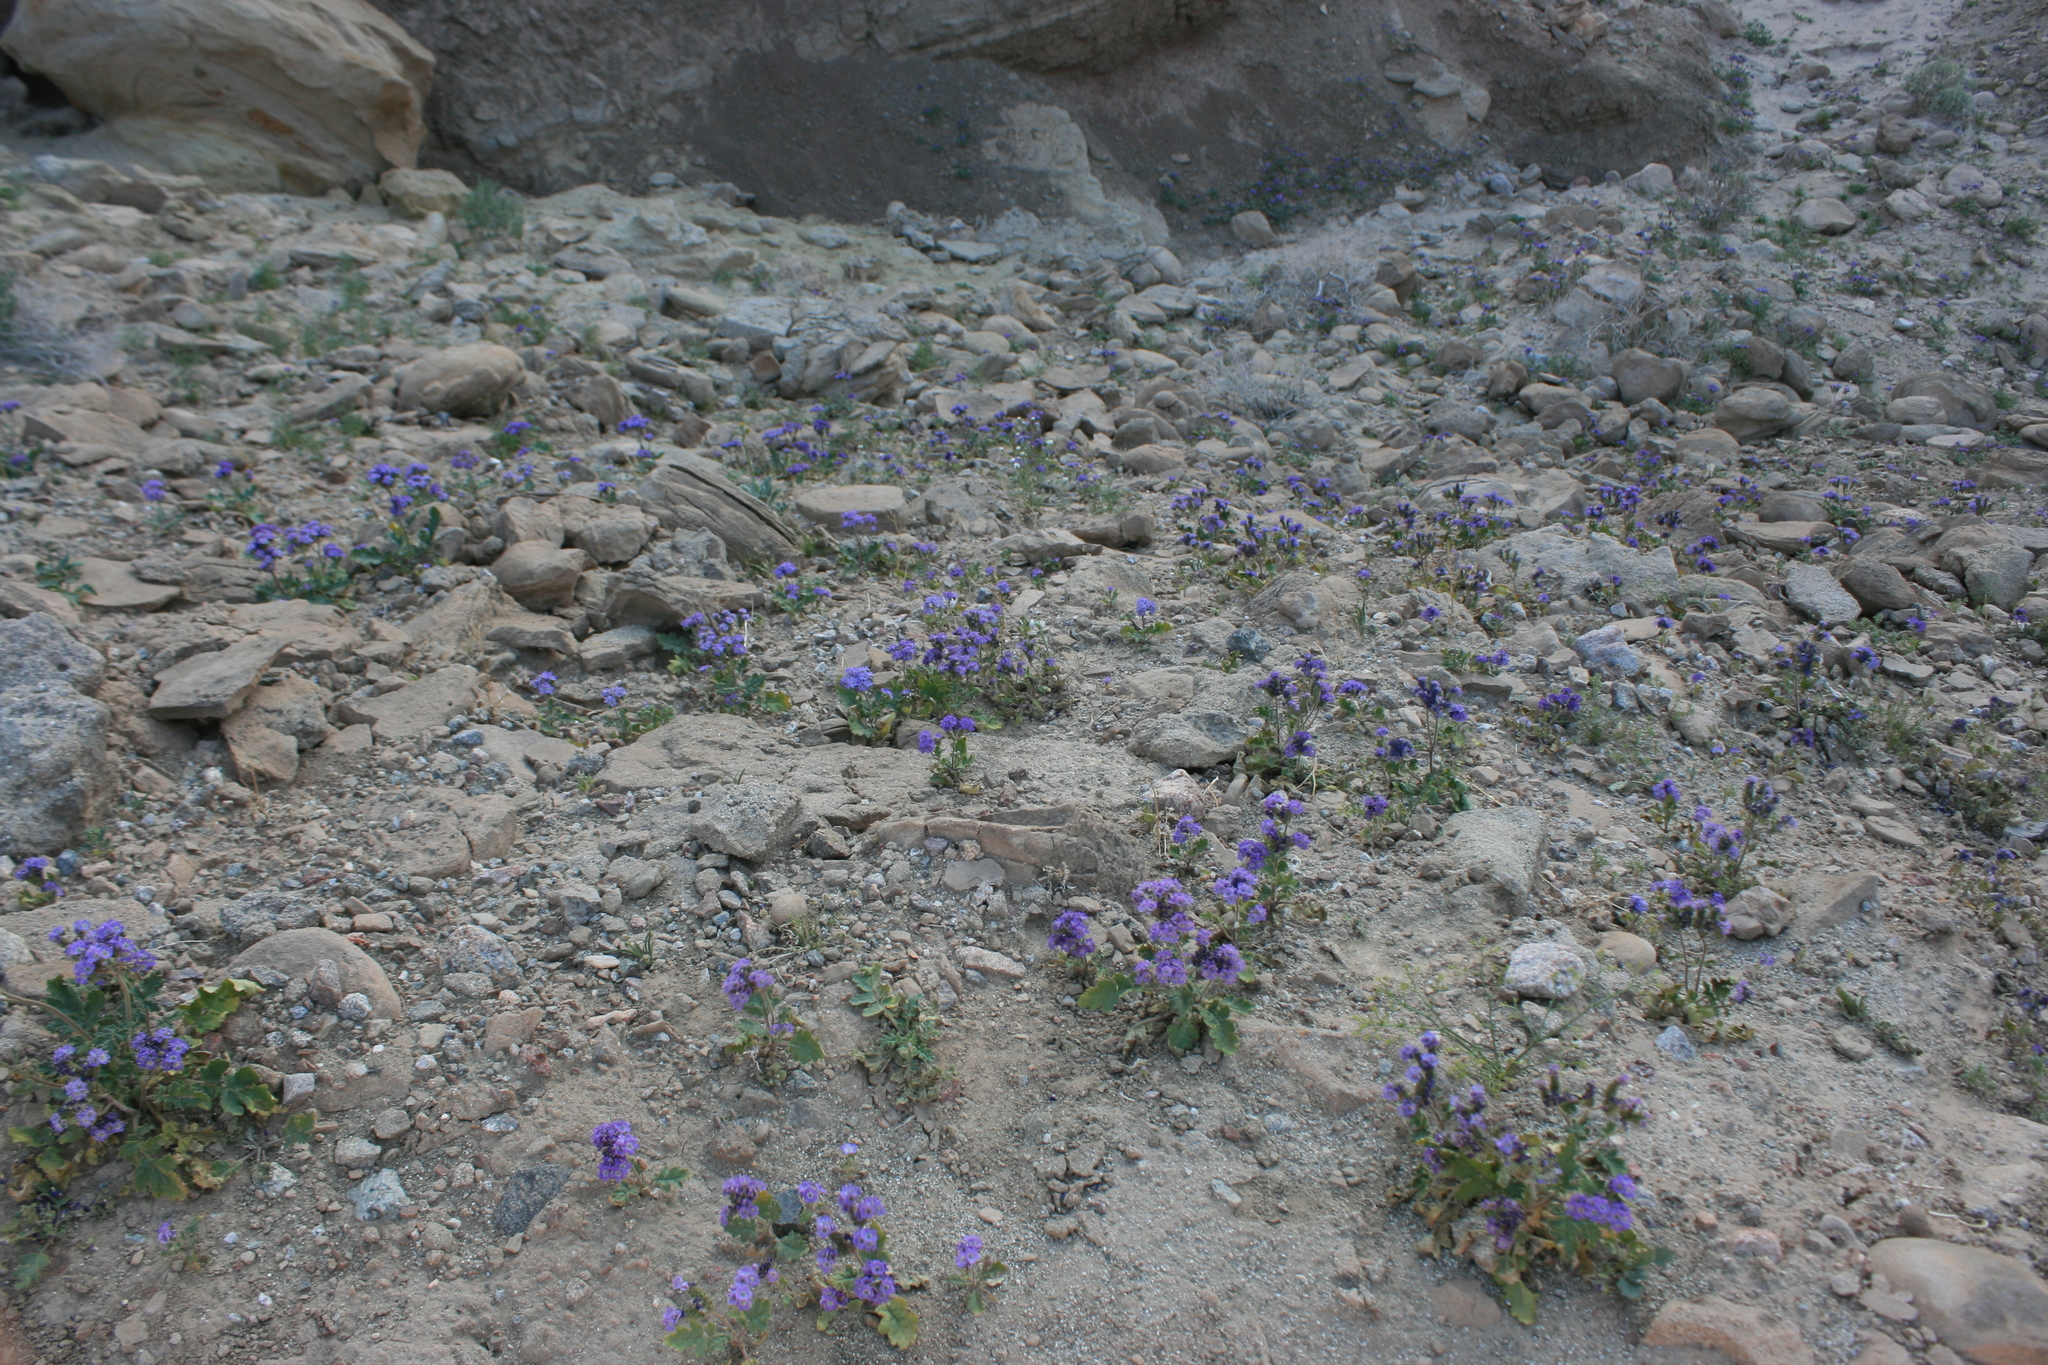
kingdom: Plantae
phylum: Tracheophyta
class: Magnoliopsida
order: Boraginales
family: Hydrophyllaceae
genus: Phacelia
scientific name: Phacelia crenulata
